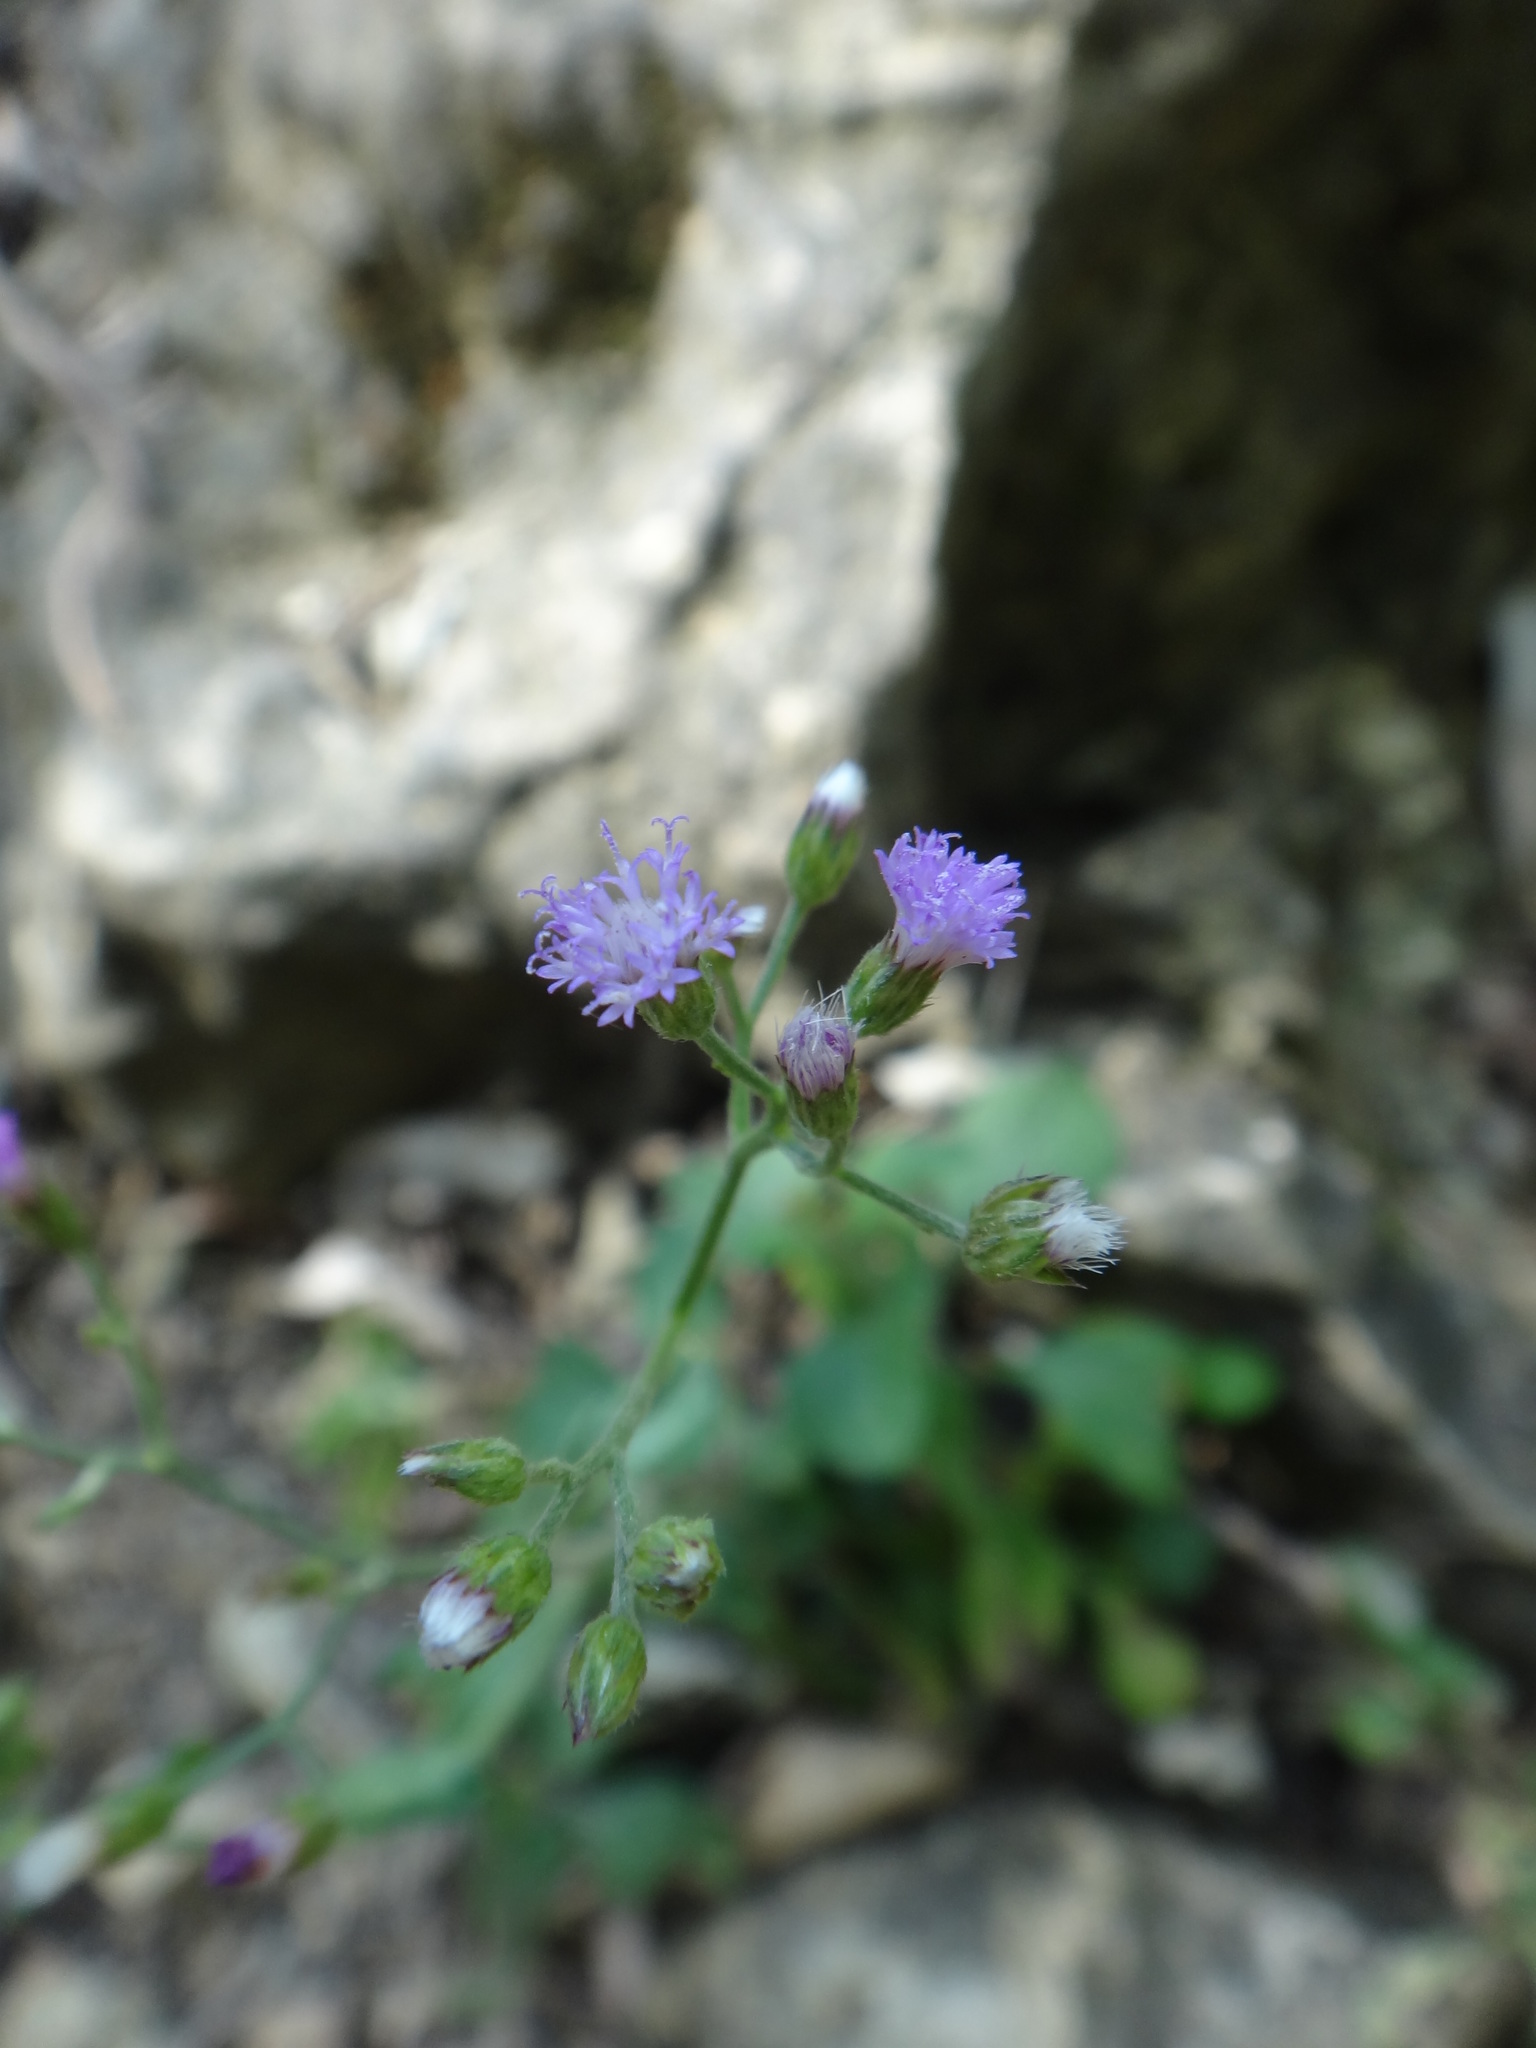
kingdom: Plantae
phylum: Tracheophyta
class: Magnoliopsida
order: Asterales
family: Asteraceae
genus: Cyanthillium
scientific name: Cyanthillium cinereum
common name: Little ironweed
